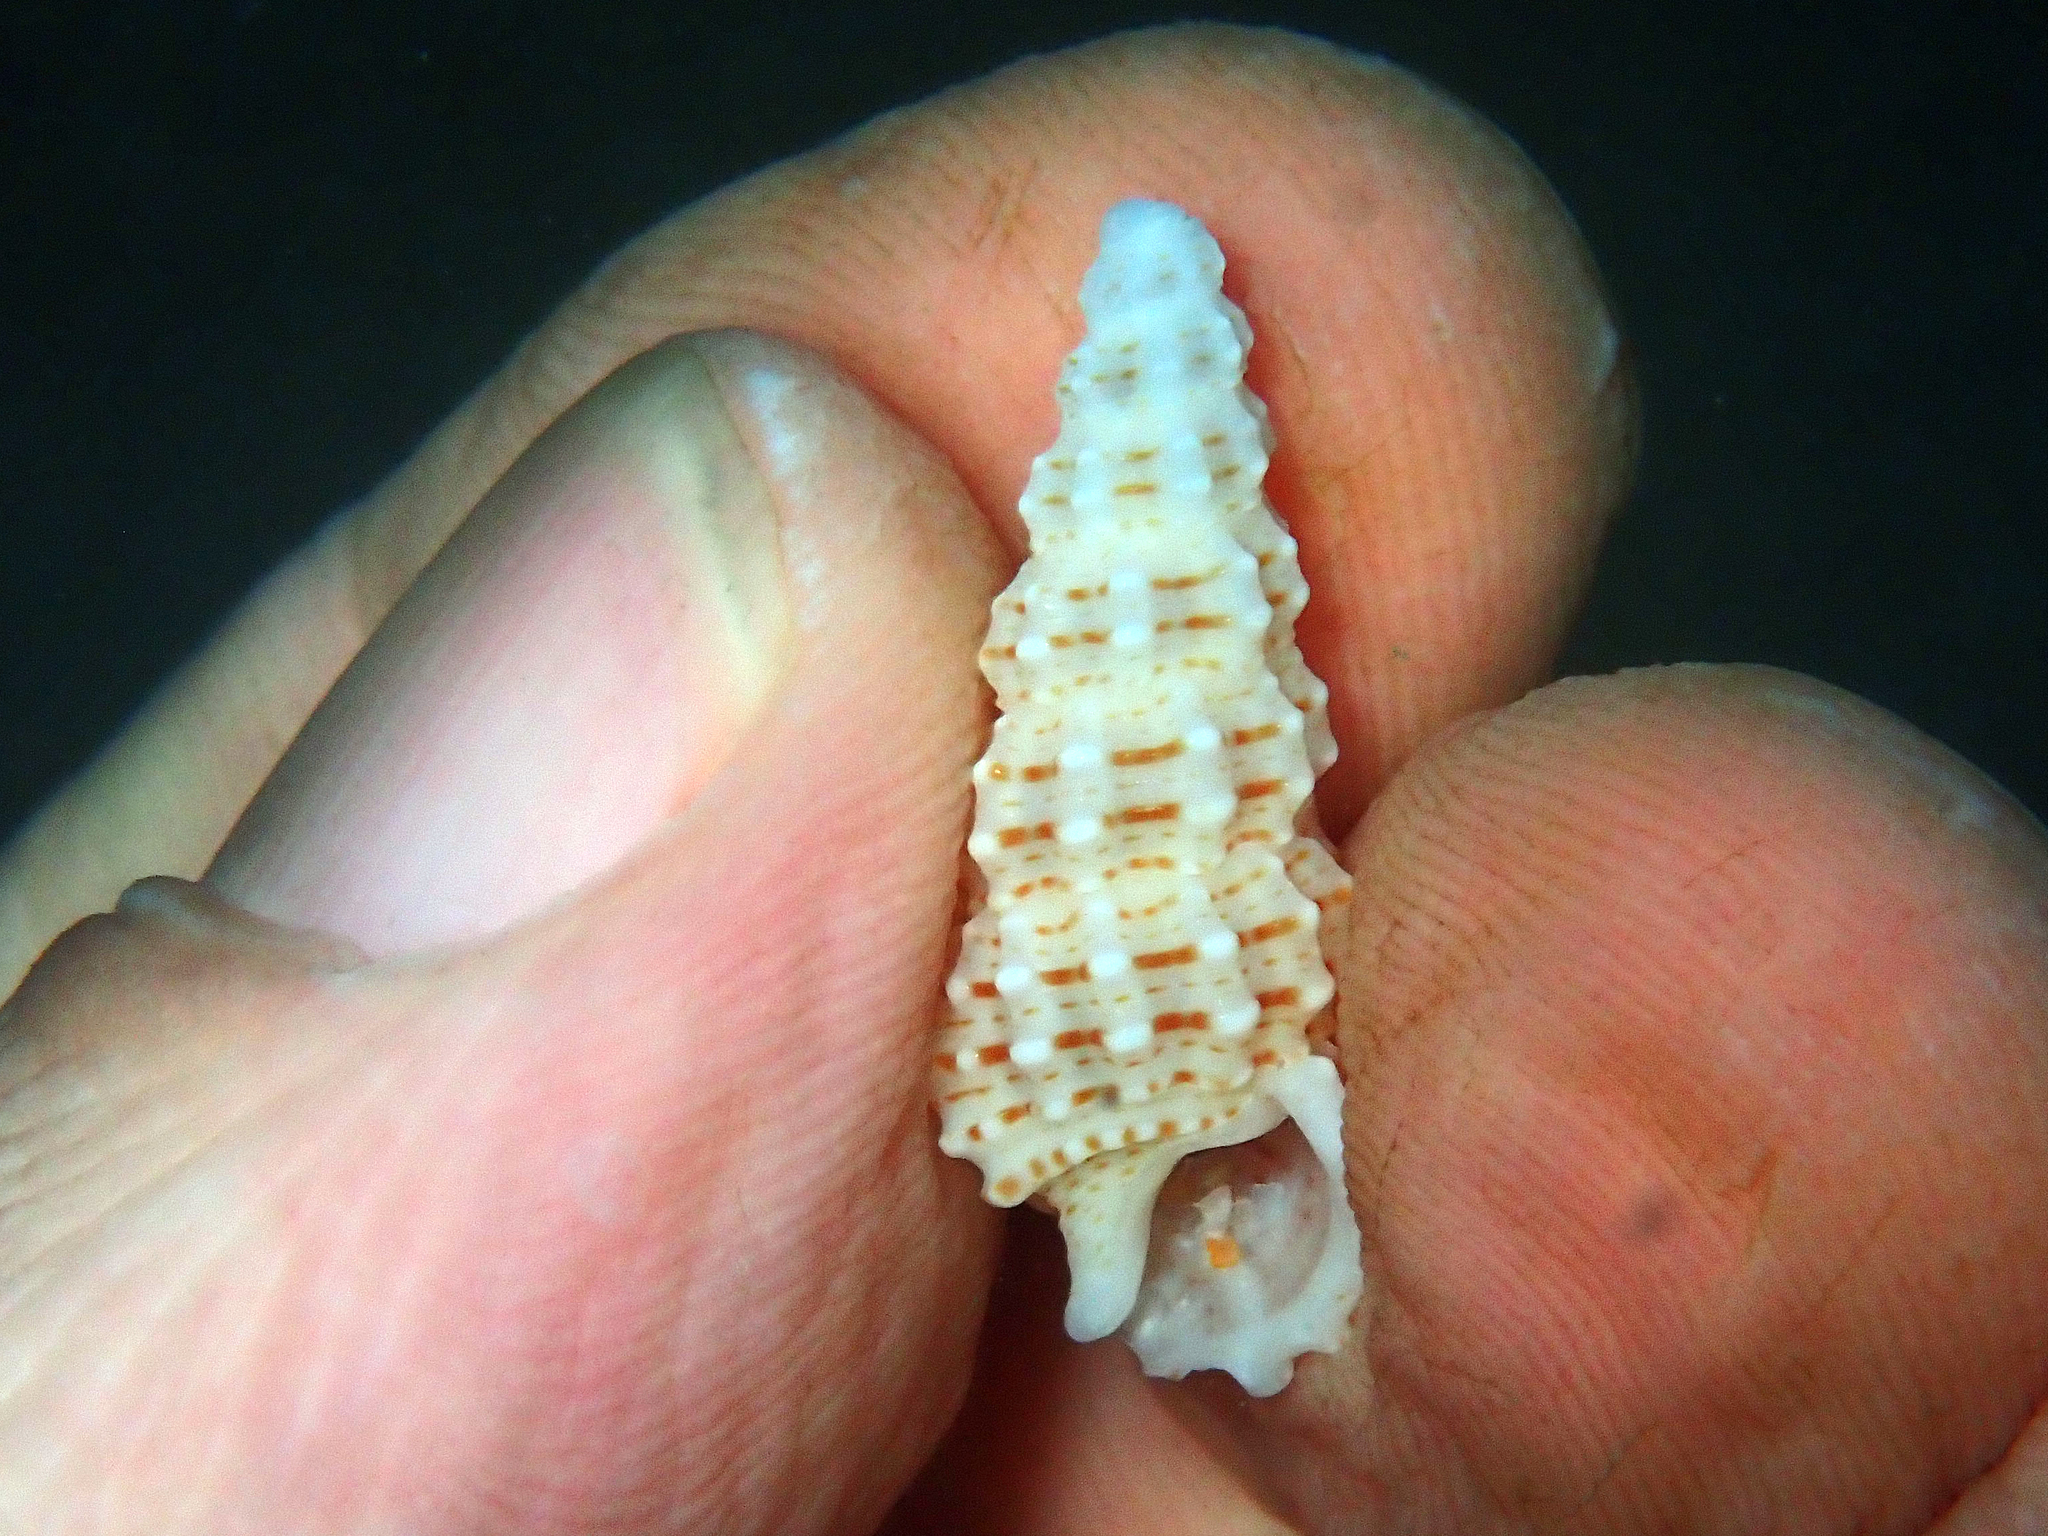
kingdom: Animalia
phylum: Mollusca
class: Gastropoda
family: Cerithiidae
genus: Cerithium
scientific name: Cerithium muscarum
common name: Fly-specked cerith
